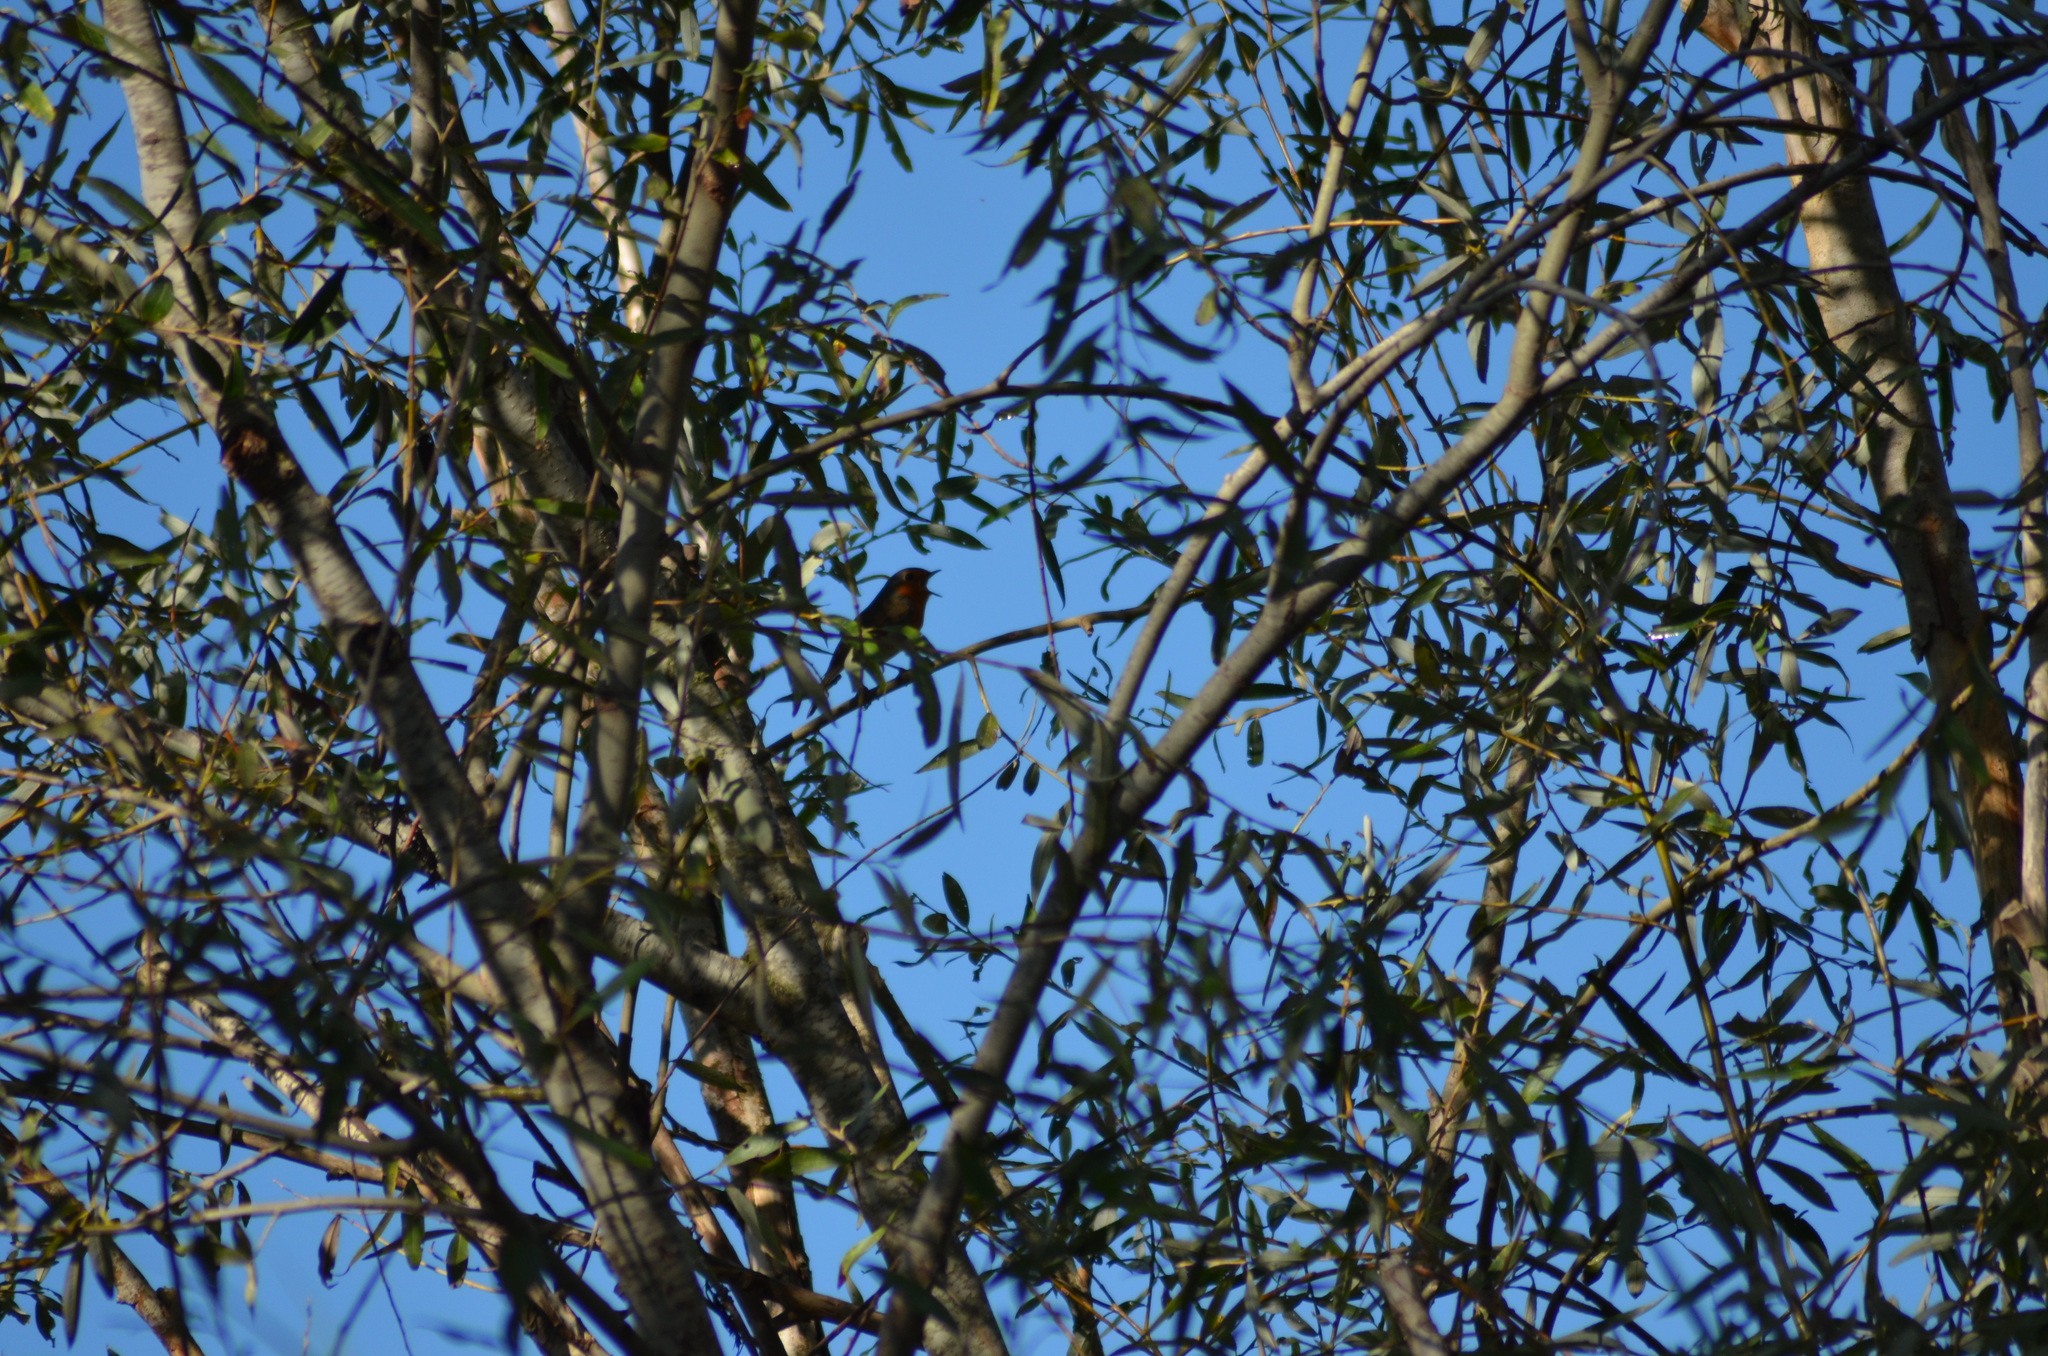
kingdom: Animalia
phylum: Chordata
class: Aves
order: Passeriformes
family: Muscicapidae
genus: Erithacus
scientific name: Erithacus rubecula
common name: European robin
